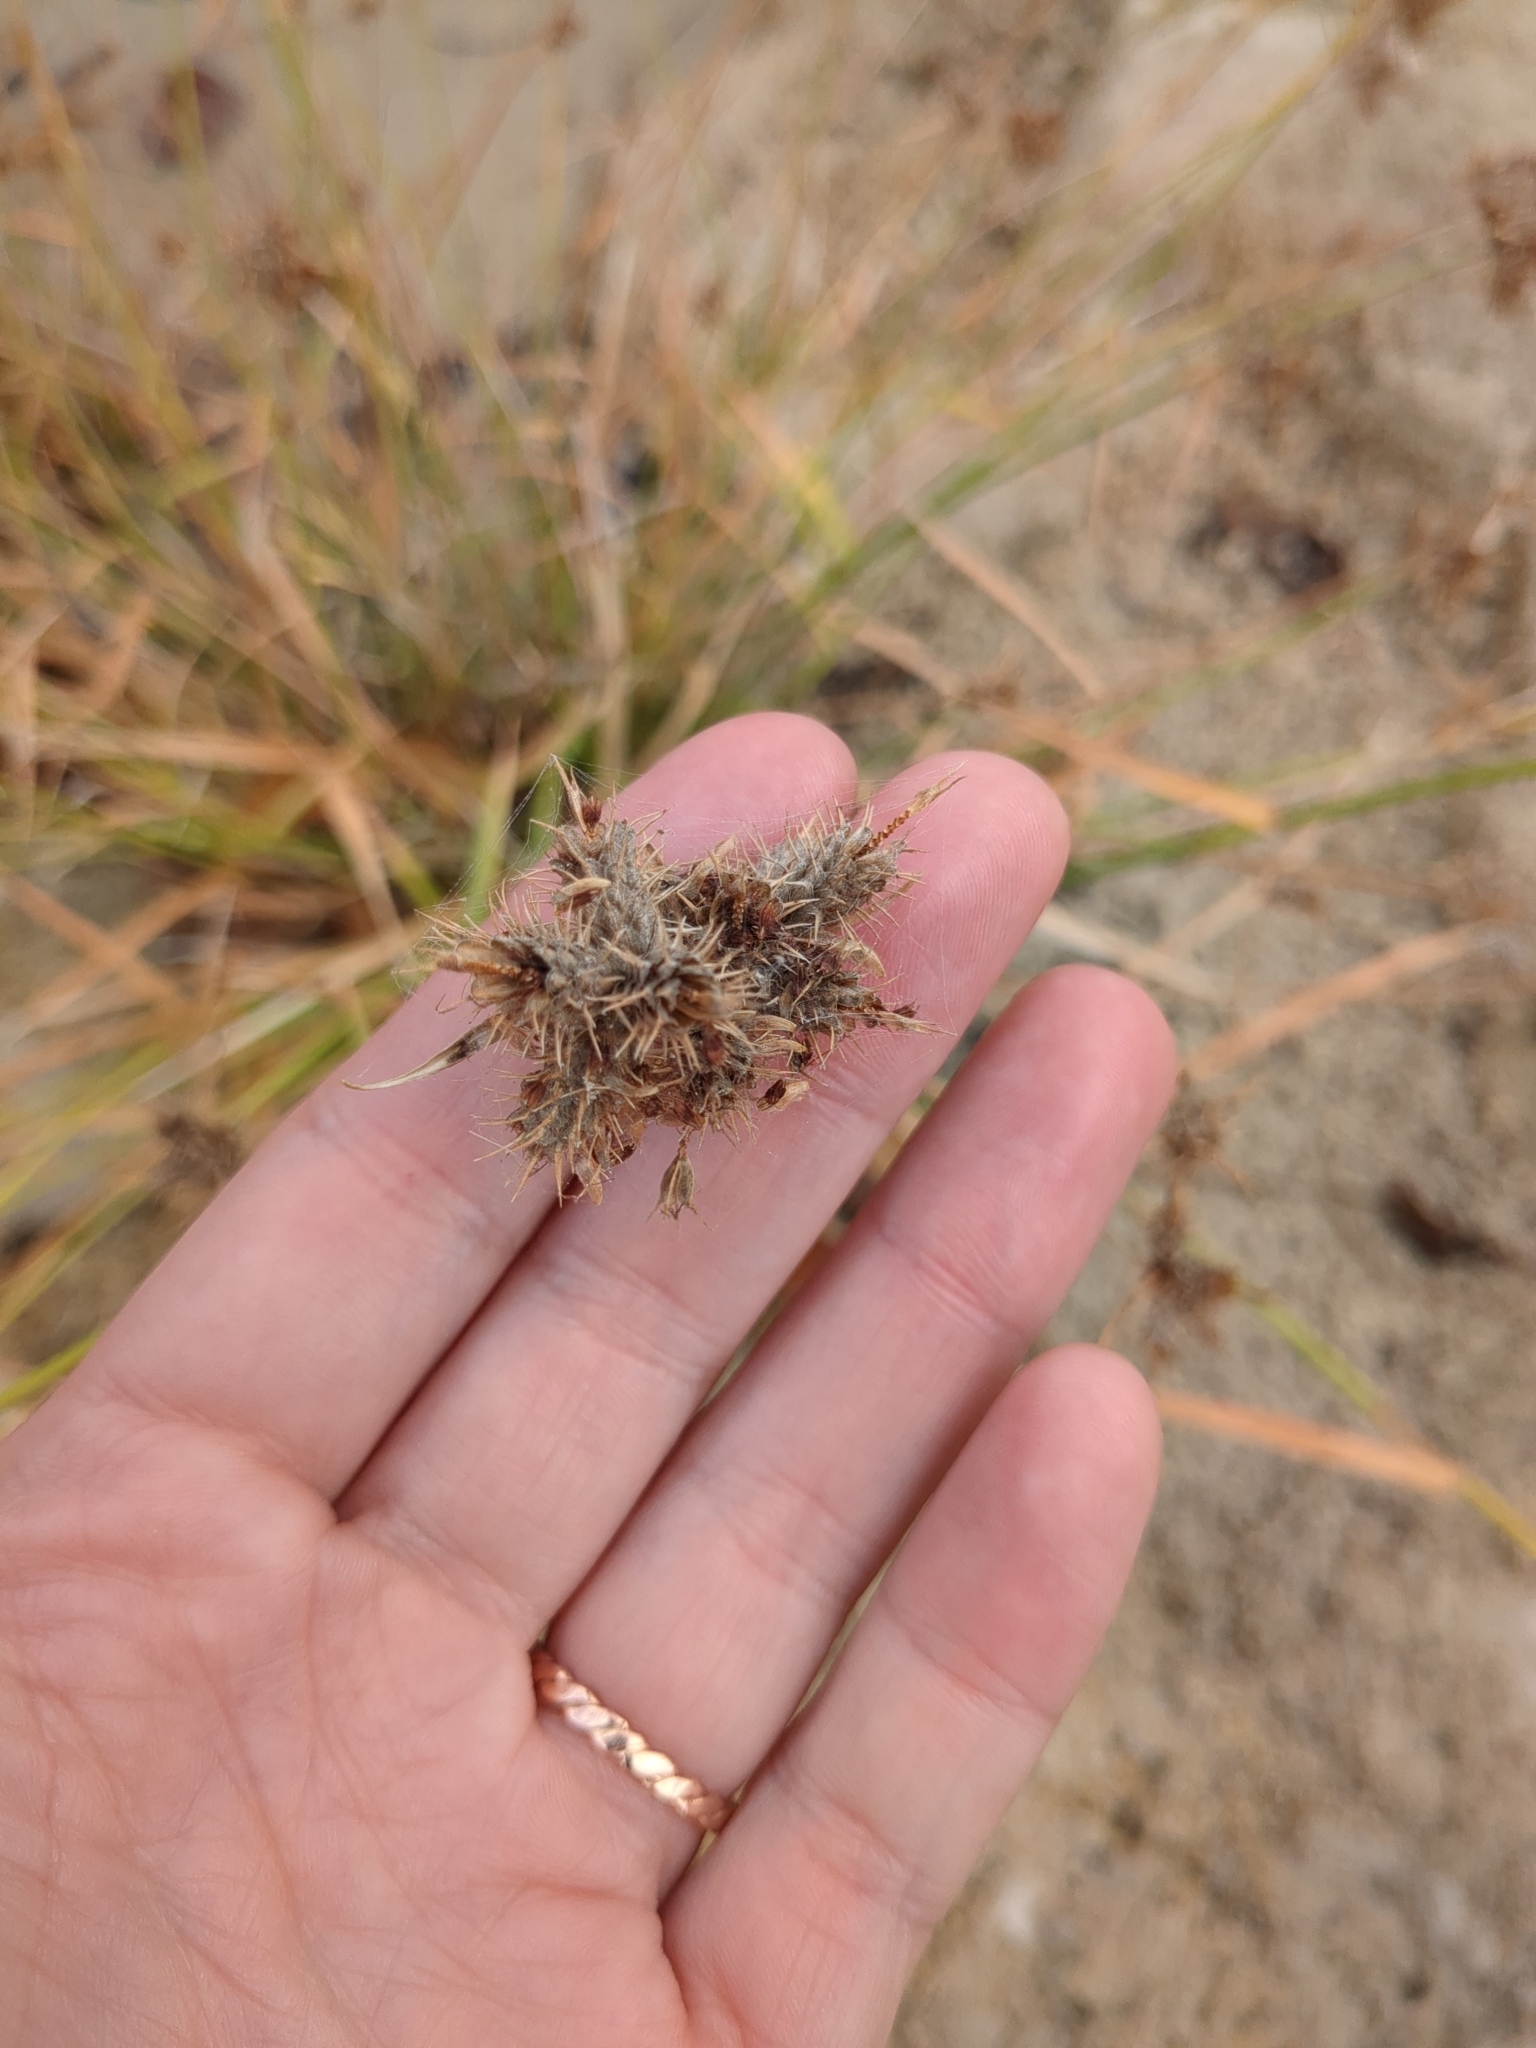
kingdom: Plantae
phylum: Tracheophyta
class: Liliopsida
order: Poales
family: Cyperaceae
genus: Fuirena
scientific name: Fuirena simplex
